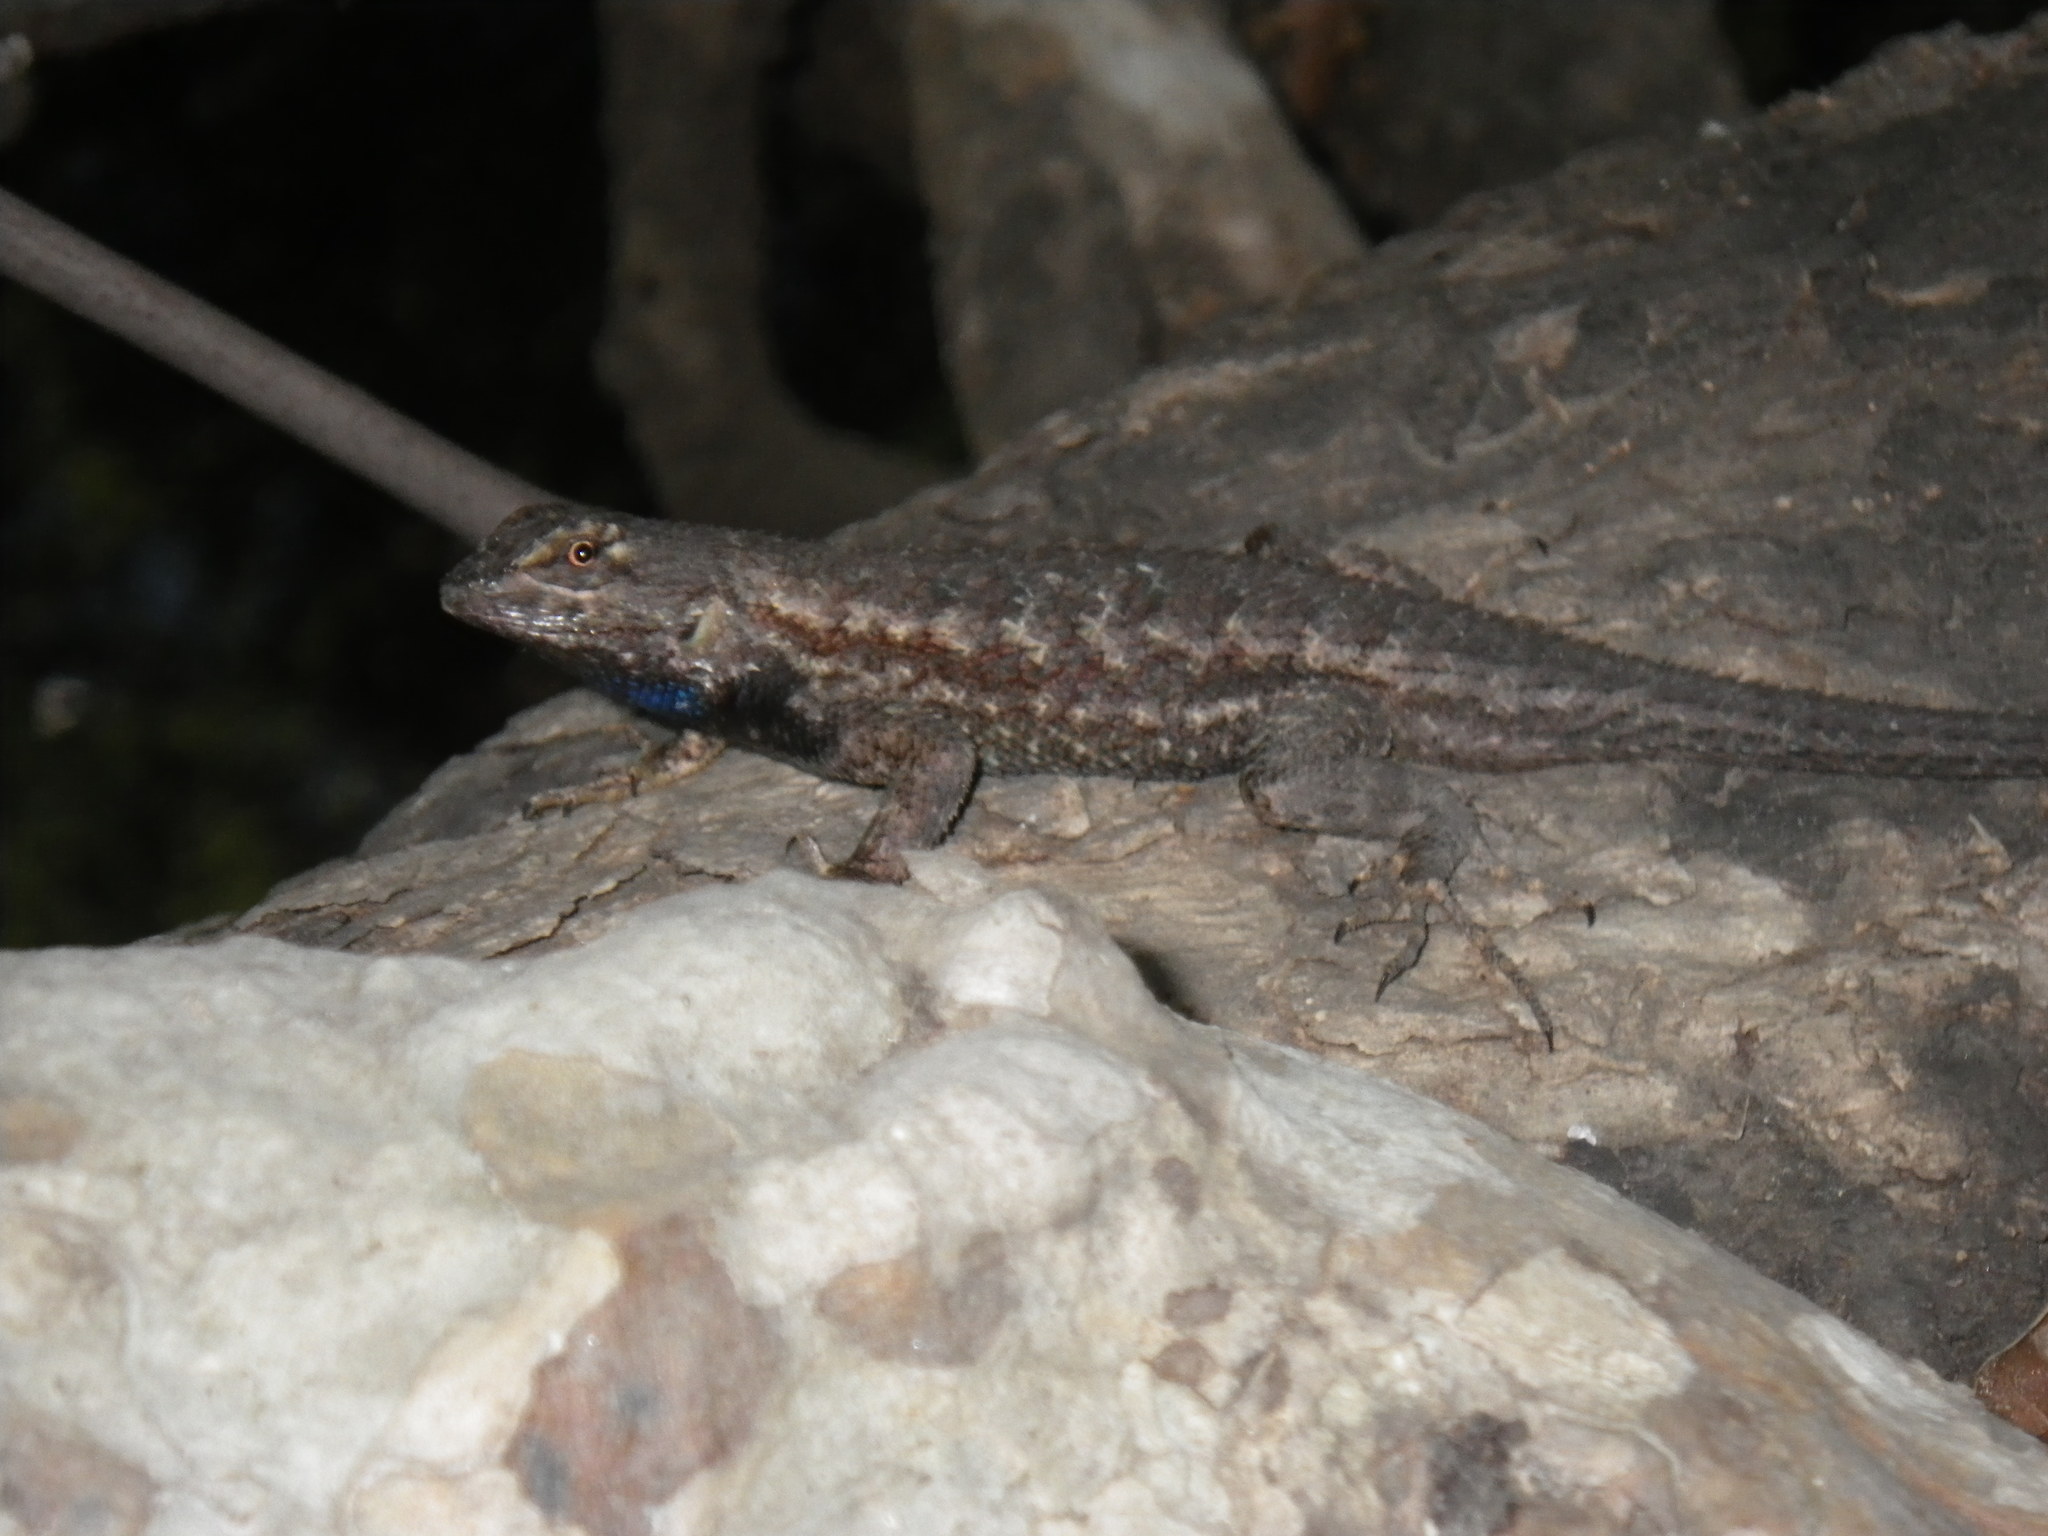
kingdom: Animalia
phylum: Chordata
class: Squamata
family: Phrynosomatidae
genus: Sceloporus
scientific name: Sceloporus occidentalis
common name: Western fence lizard
